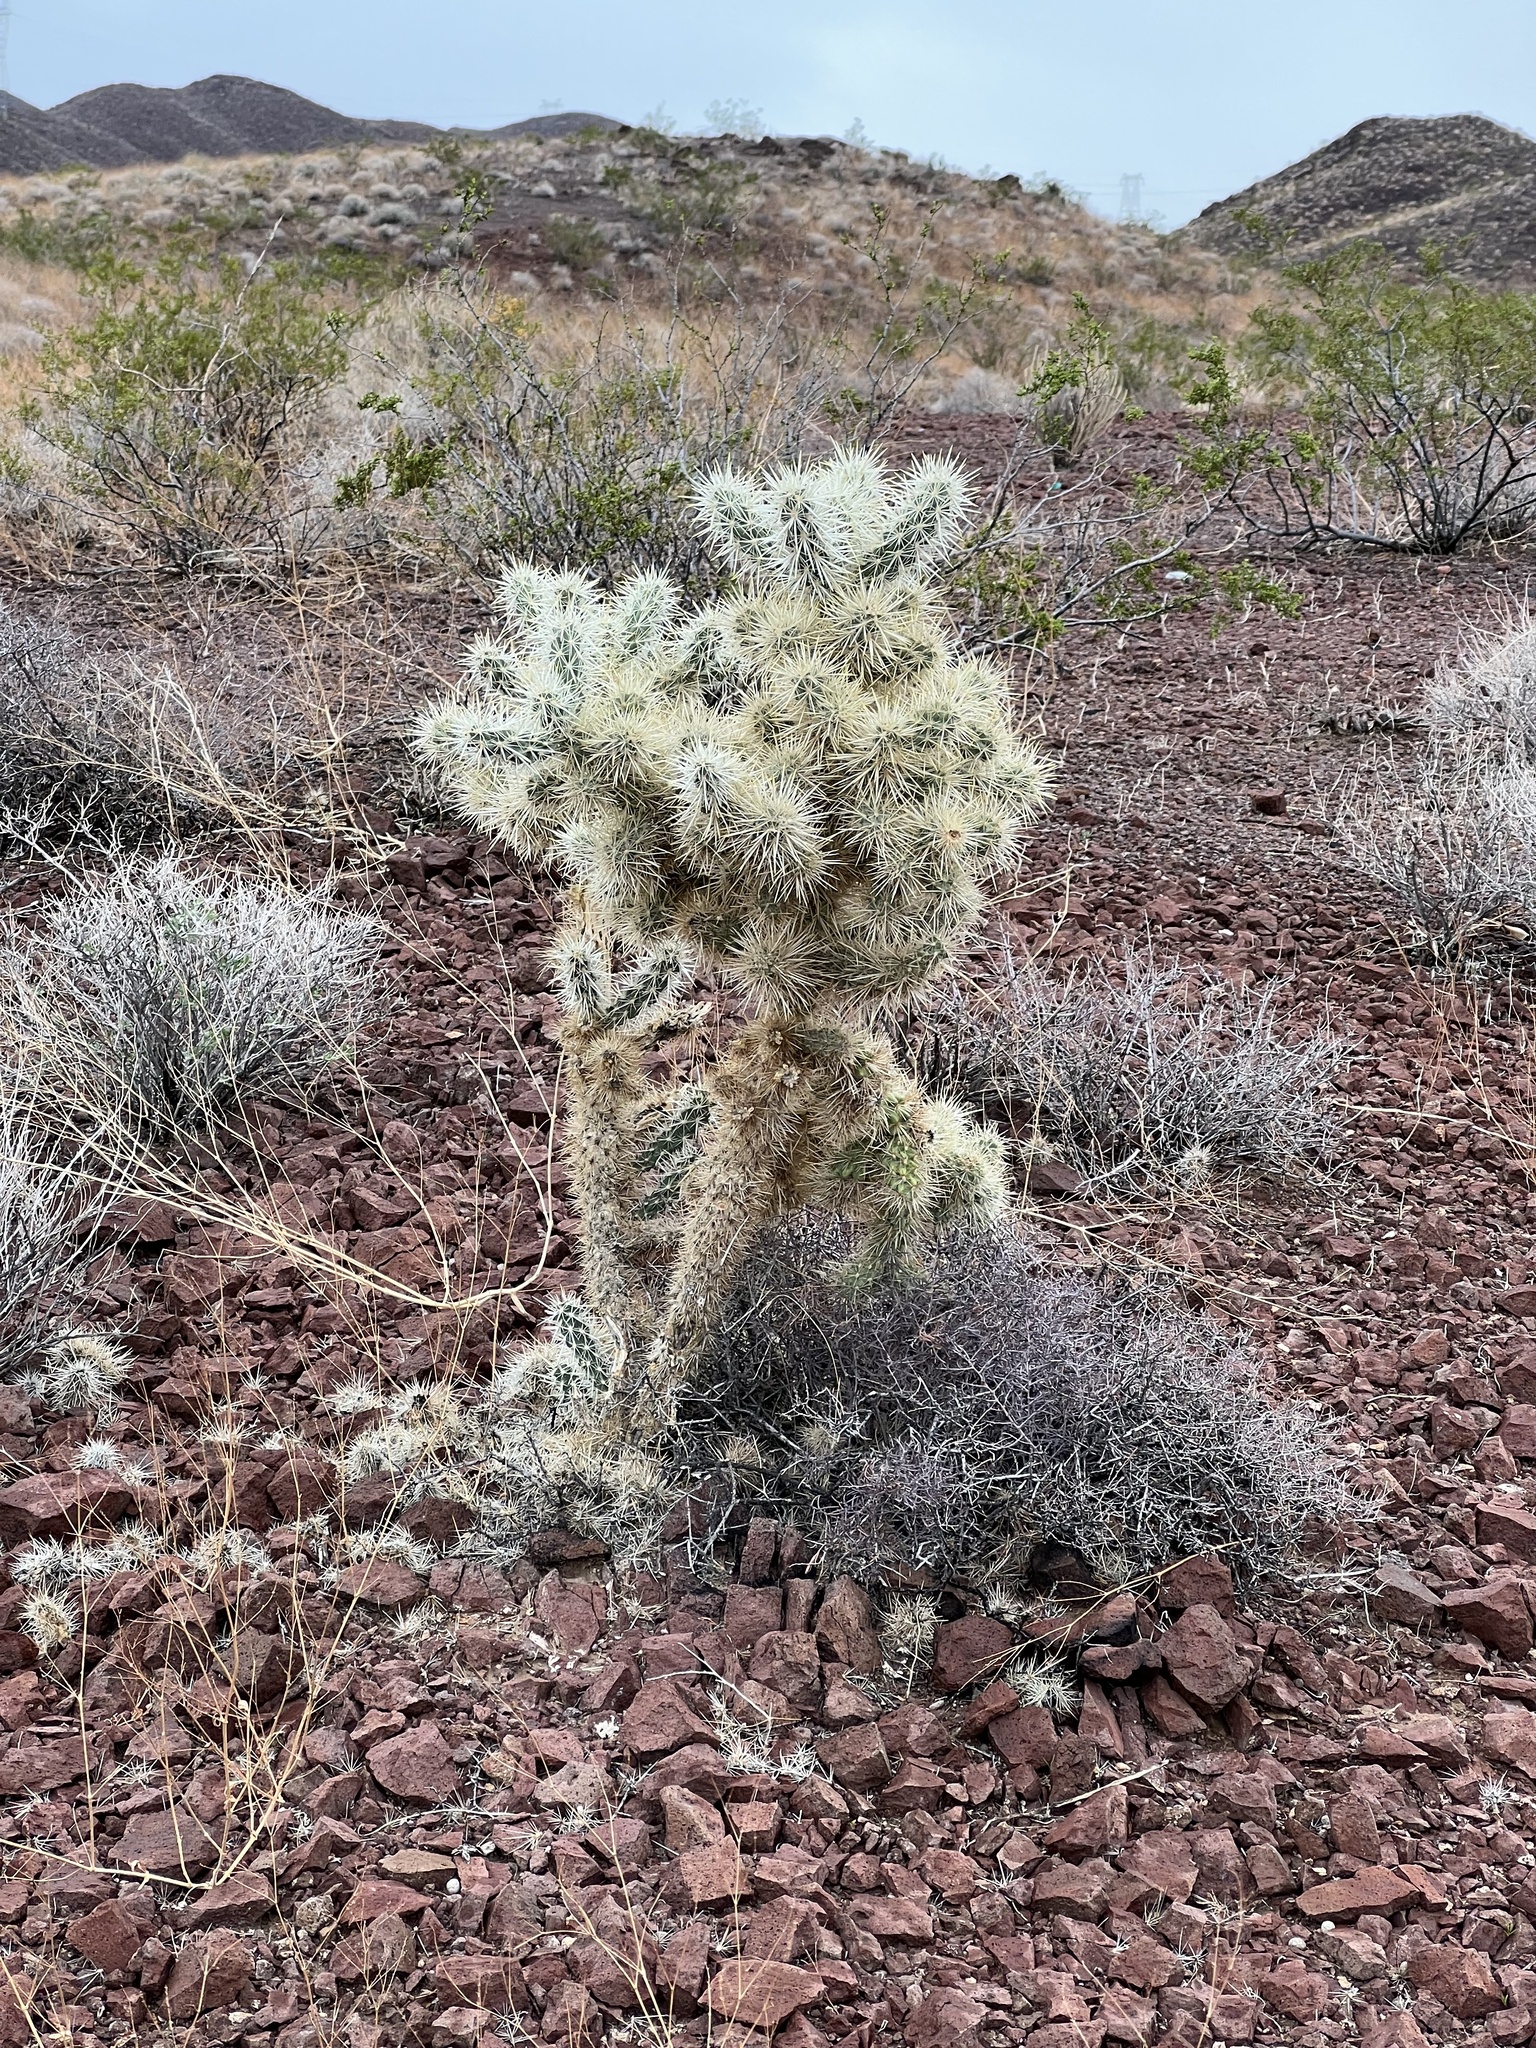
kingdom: Plantae
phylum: Tracheophyta
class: Magnoliopsida
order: Caryophyllales
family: Cactaceae
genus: Cylindropuntia
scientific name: Cylindropuntia echinocarpa
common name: Ground cholla
